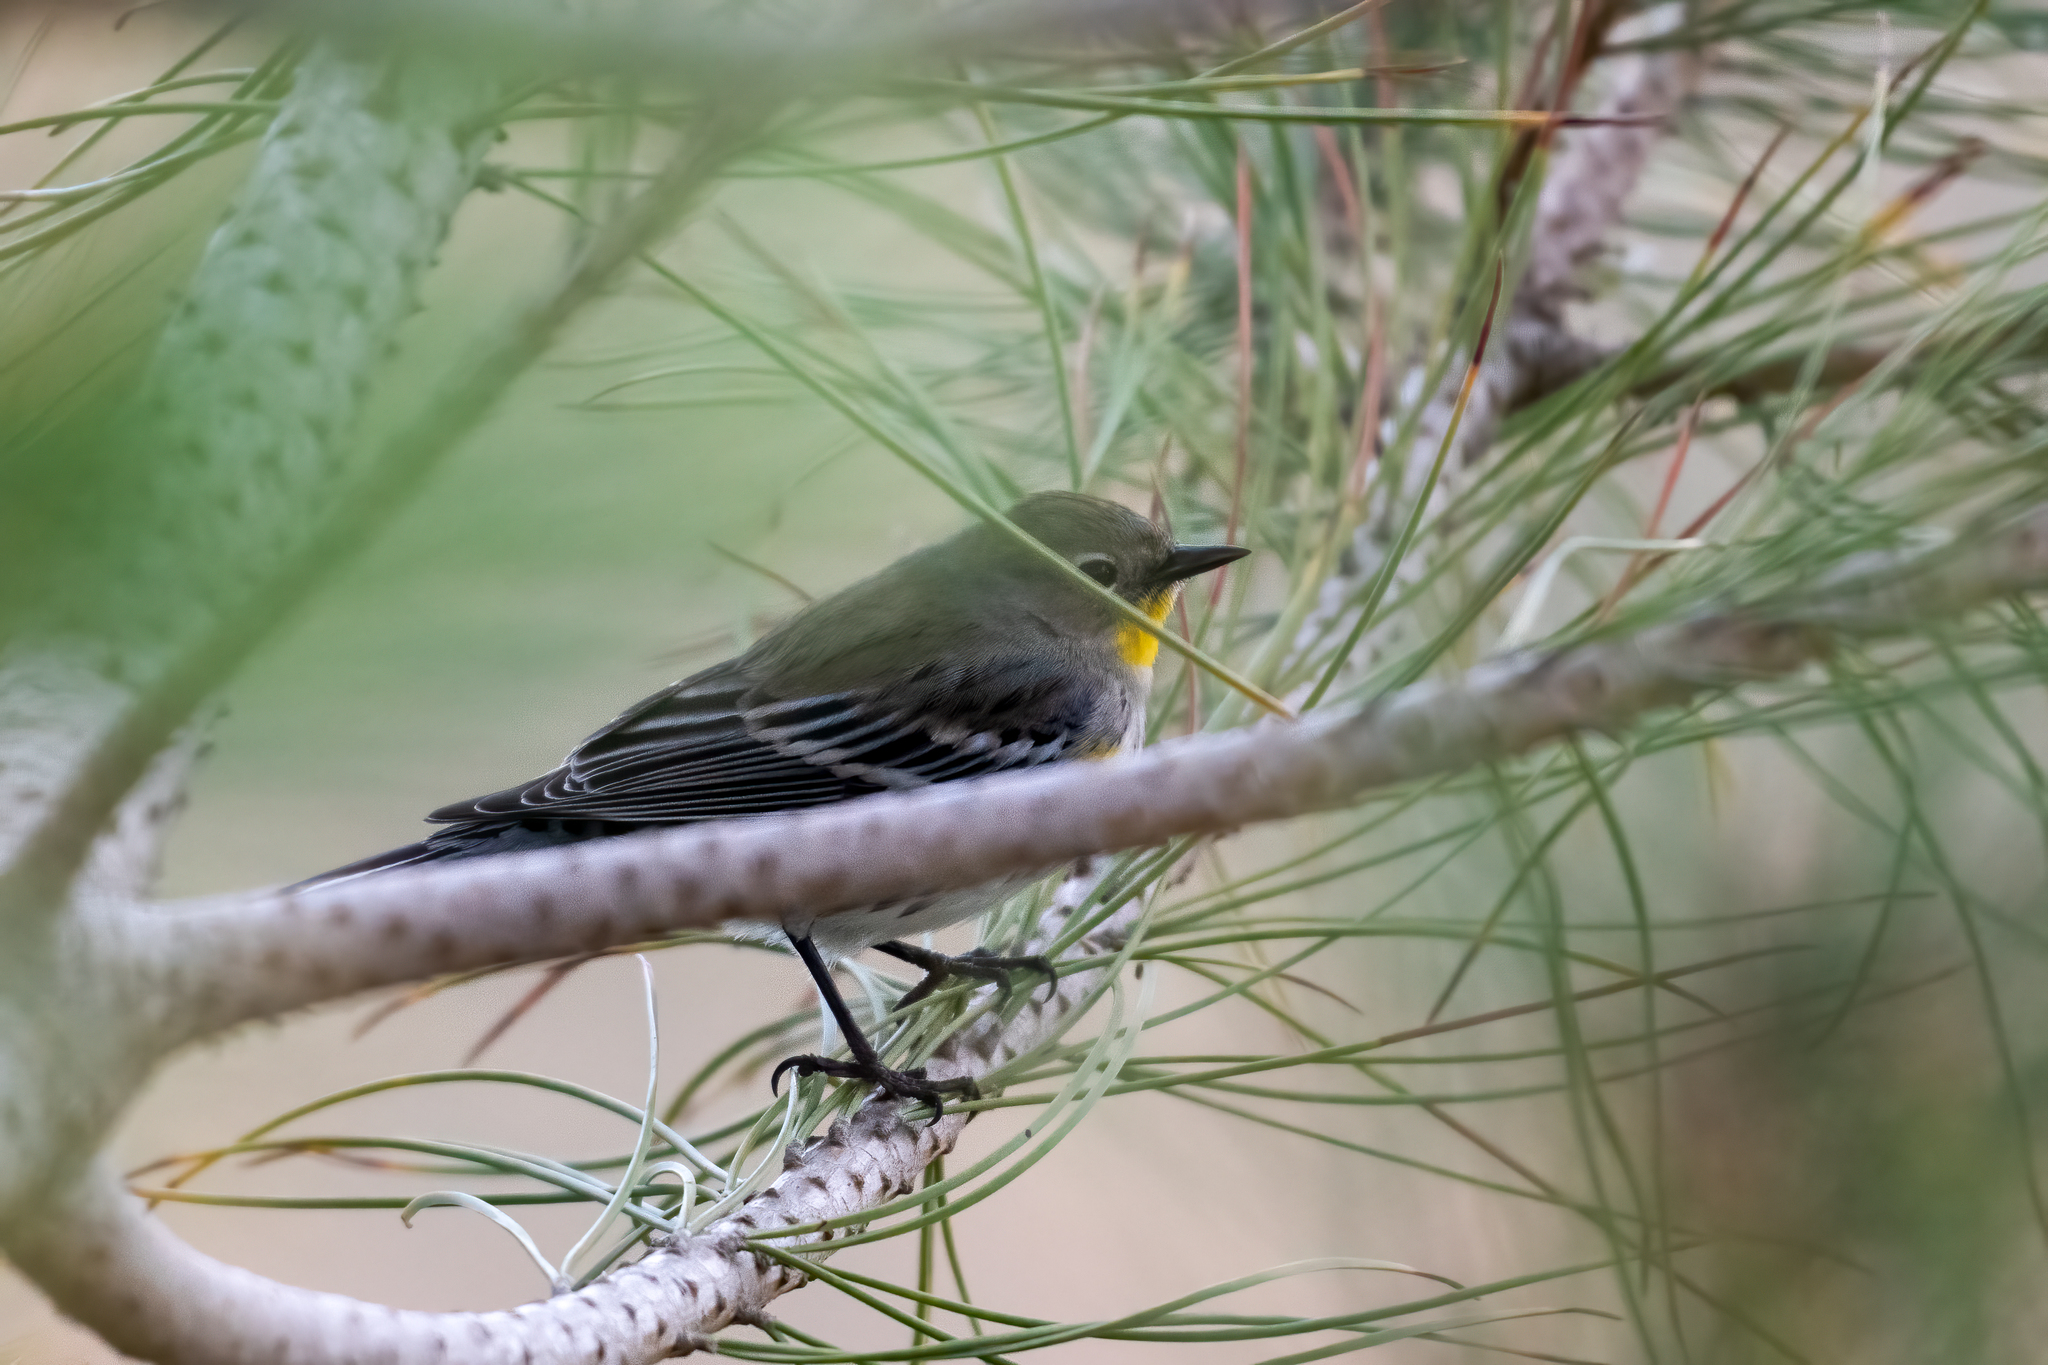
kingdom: Animalia
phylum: Chordata
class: Aves
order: Passeriformes
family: Parulidae
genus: Setophaga
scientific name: Setophaga coronata
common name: Myrtle warbler
